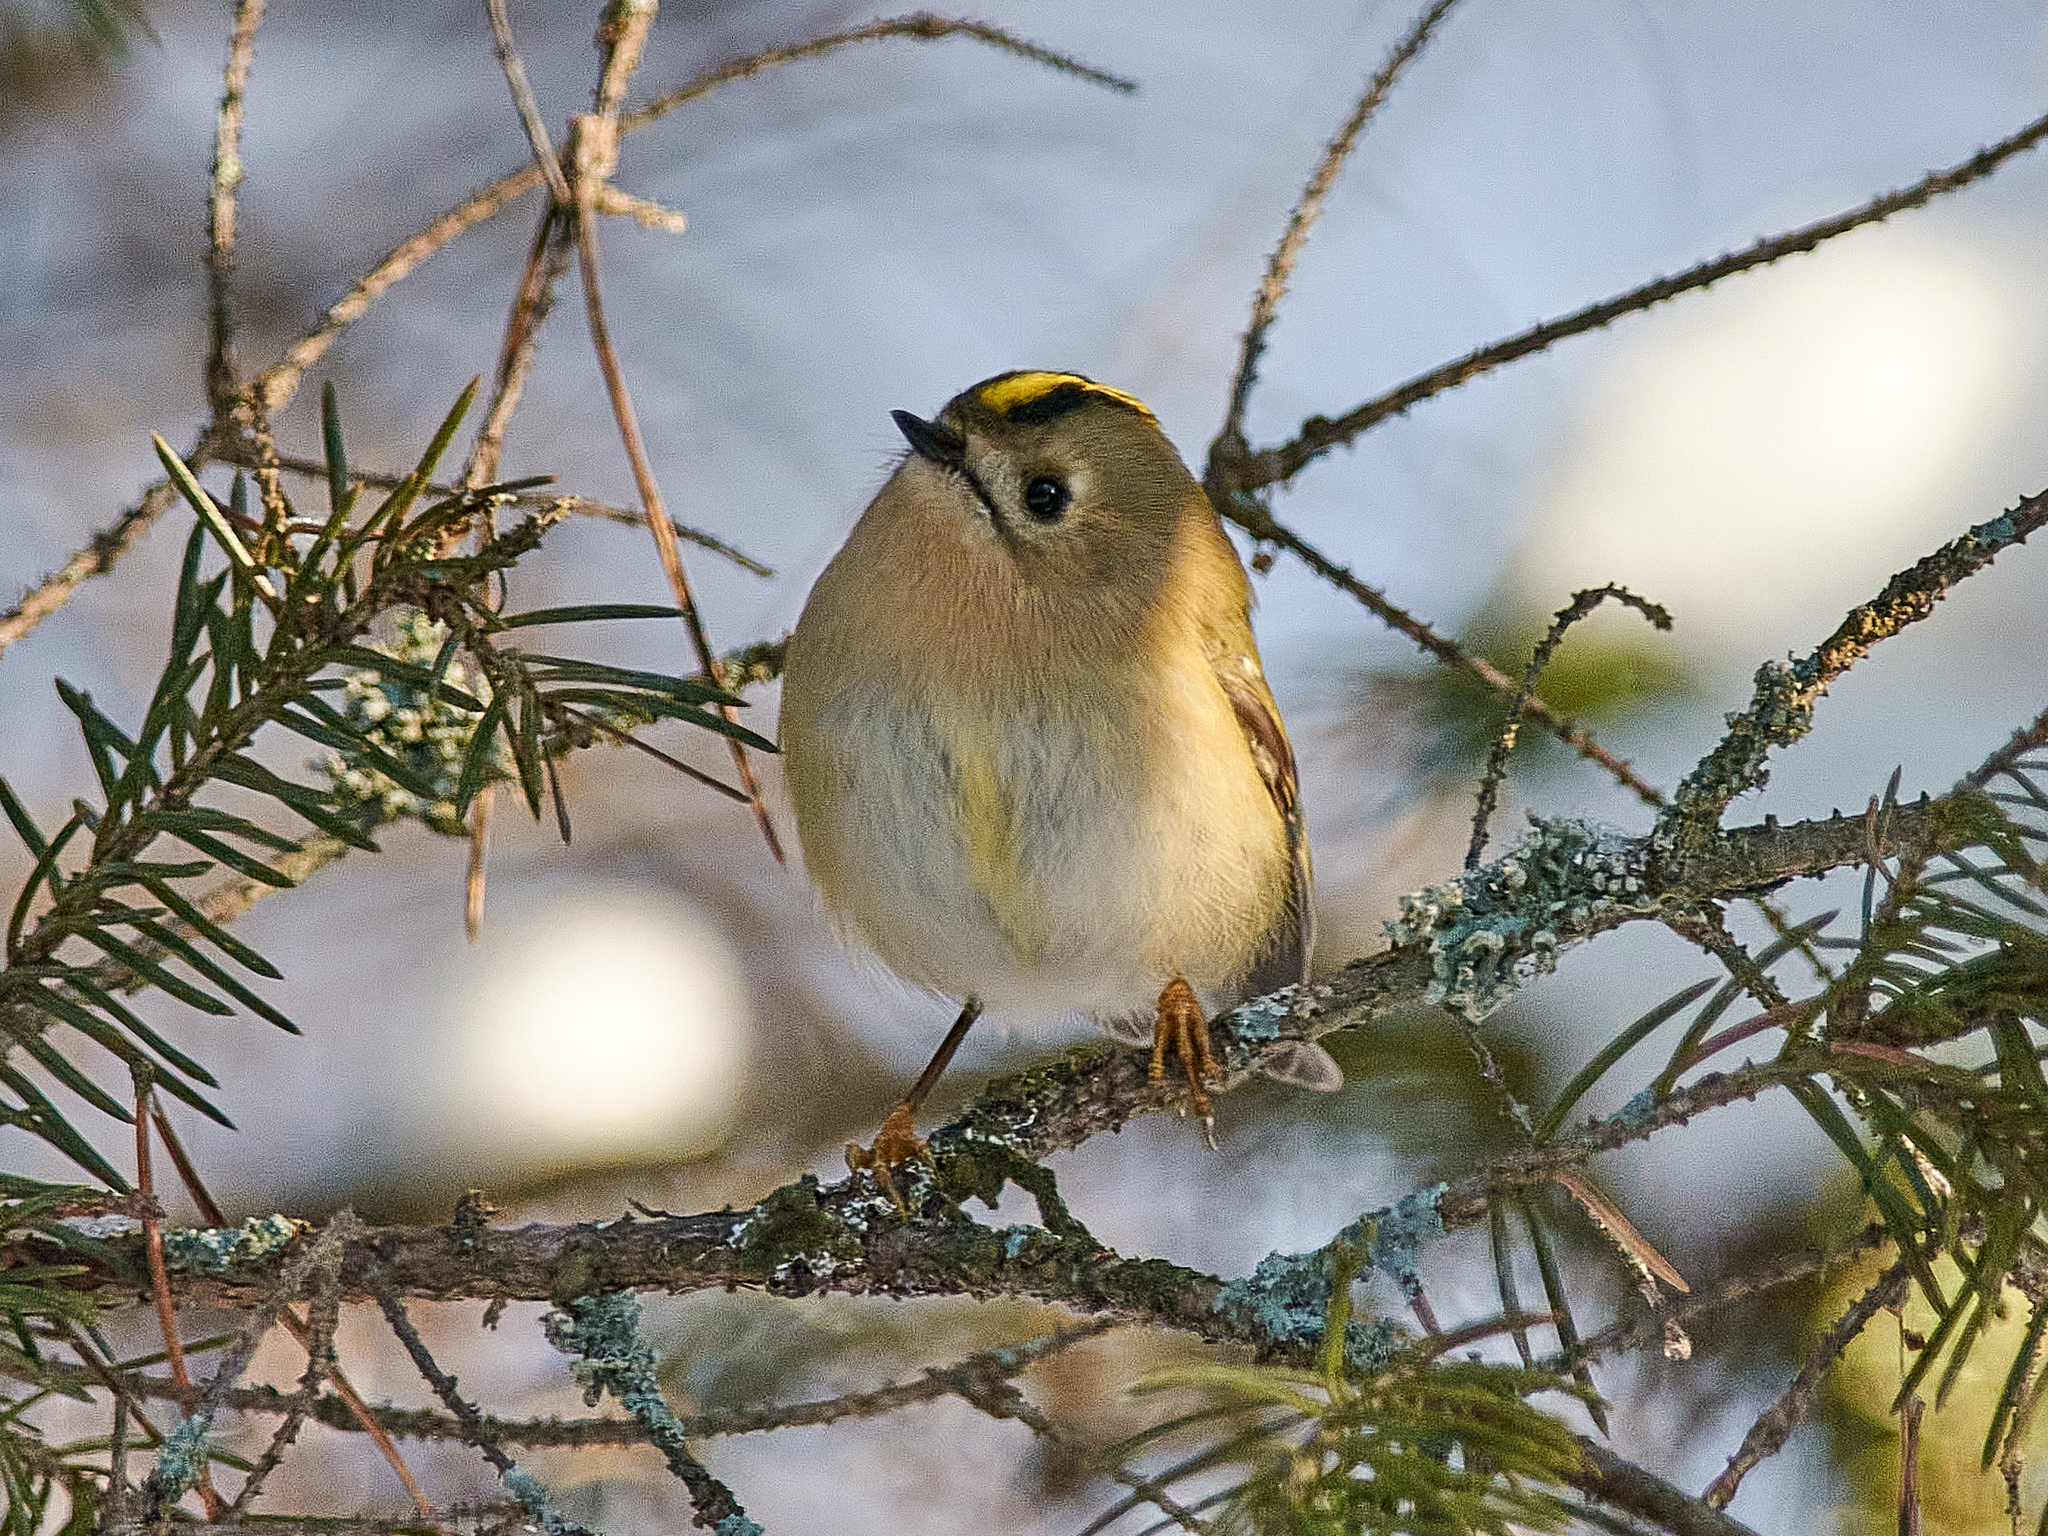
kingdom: Animalia
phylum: Chordata
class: Aves
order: Passeriformes
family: Regulidae
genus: Regulus
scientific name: Regulus regulus
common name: Goldcrest
